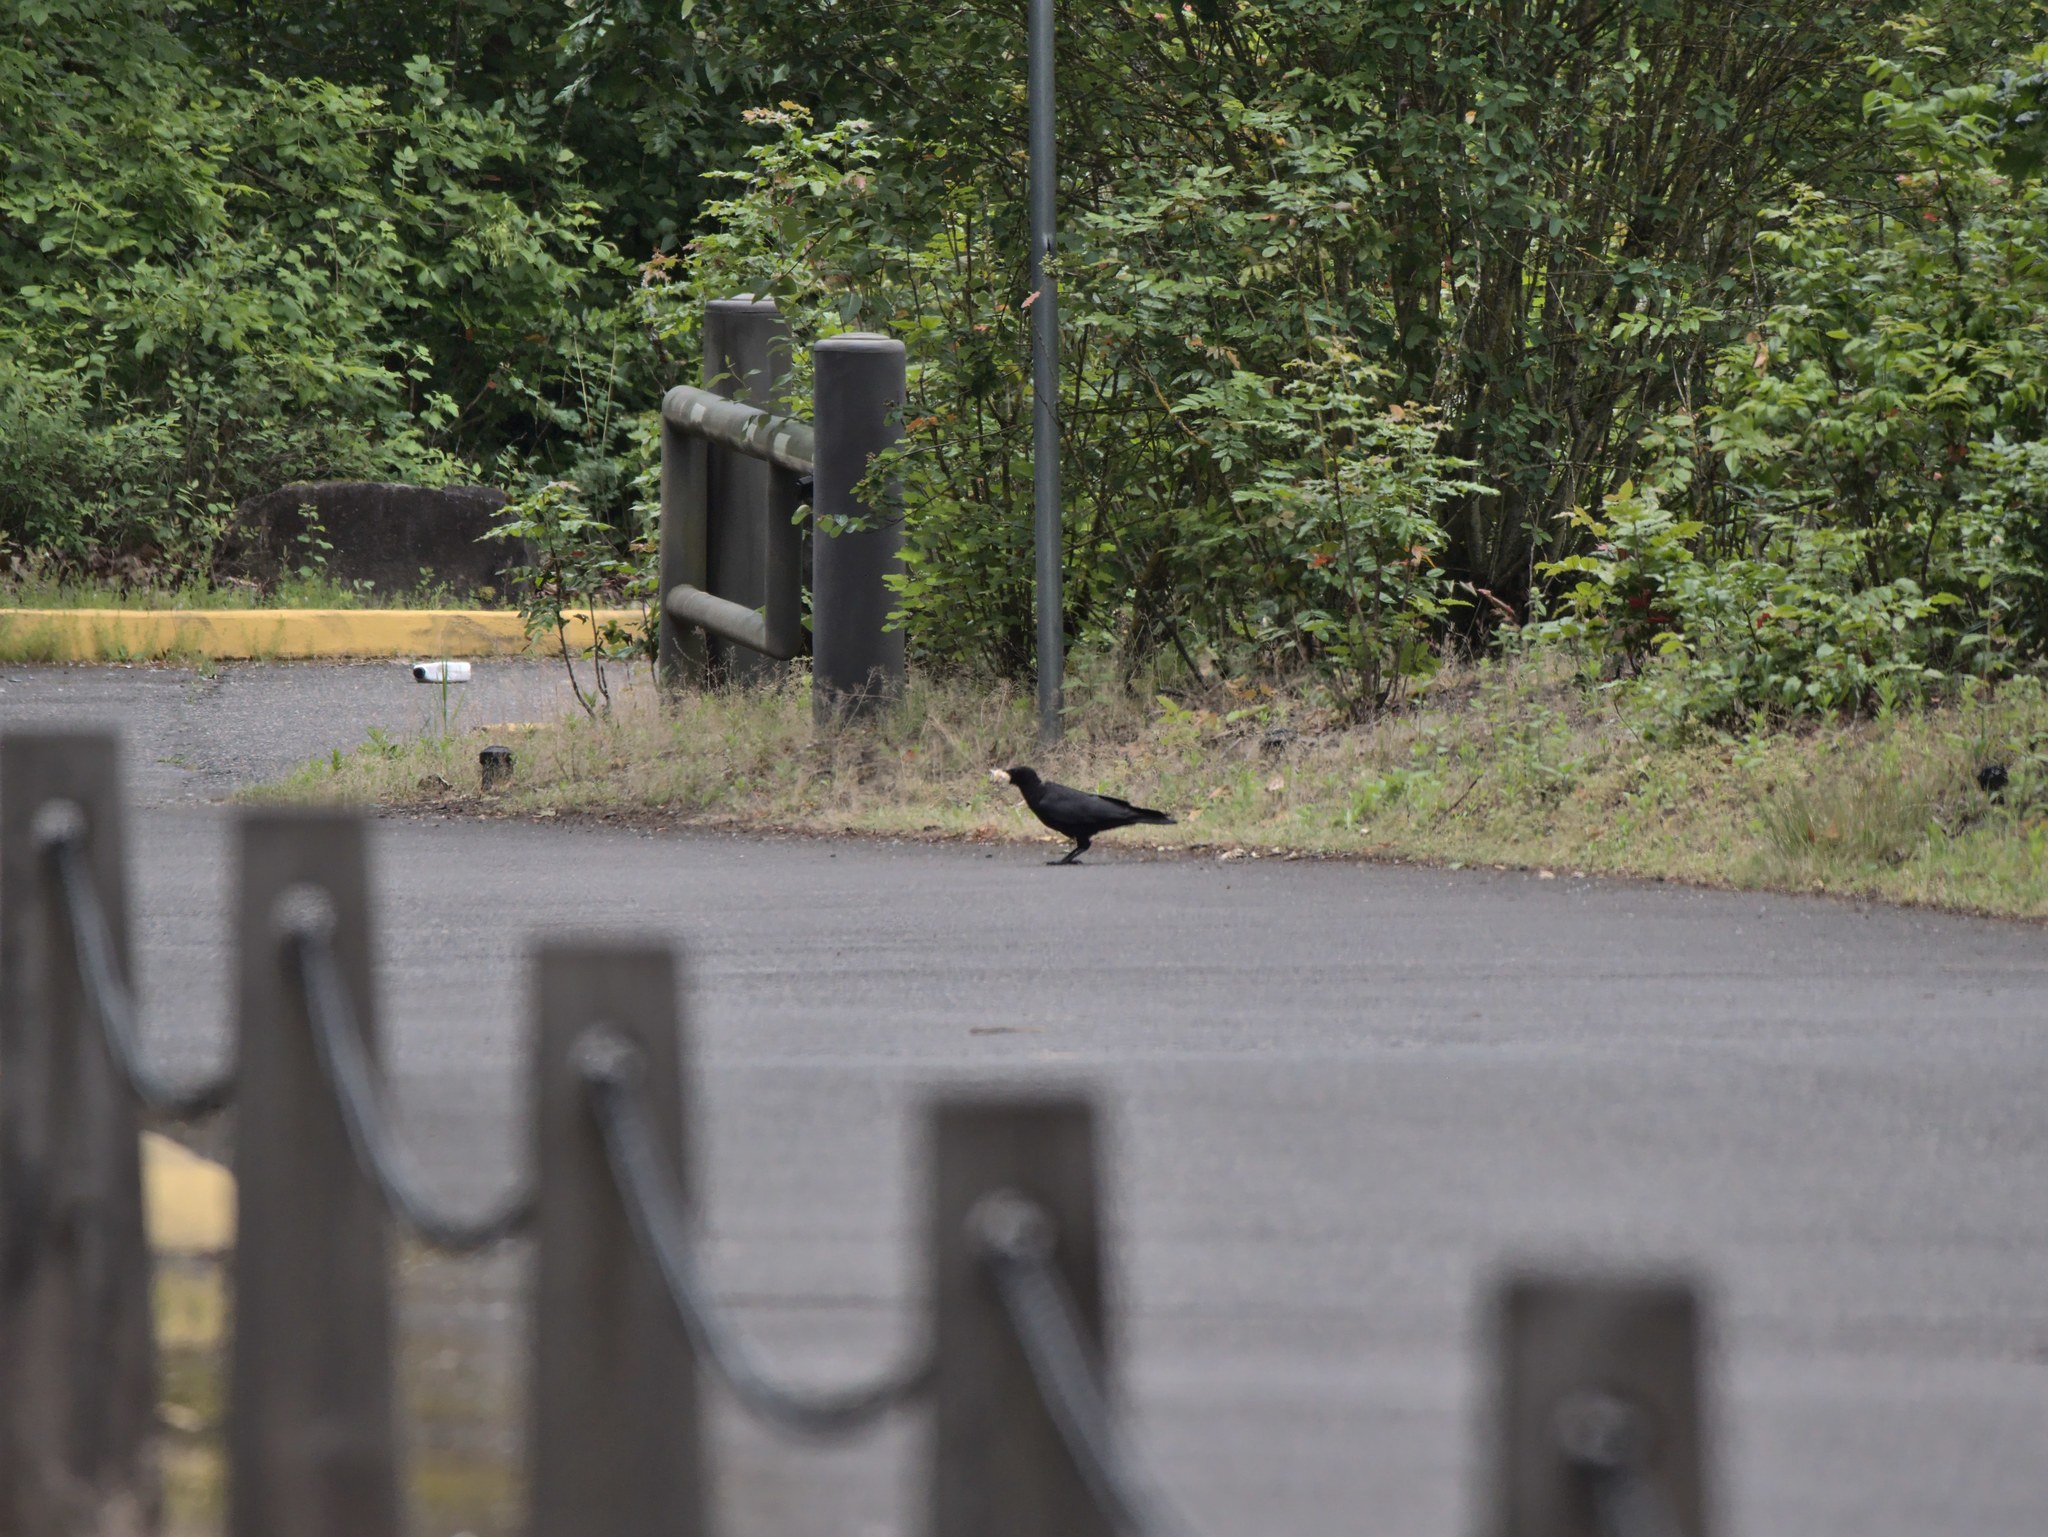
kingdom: Animalia
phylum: Chordata
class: Aves
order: Passeriformes
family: Corvidae
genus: Corvus
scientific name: Corvus brachyrhynchos
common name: American crow
